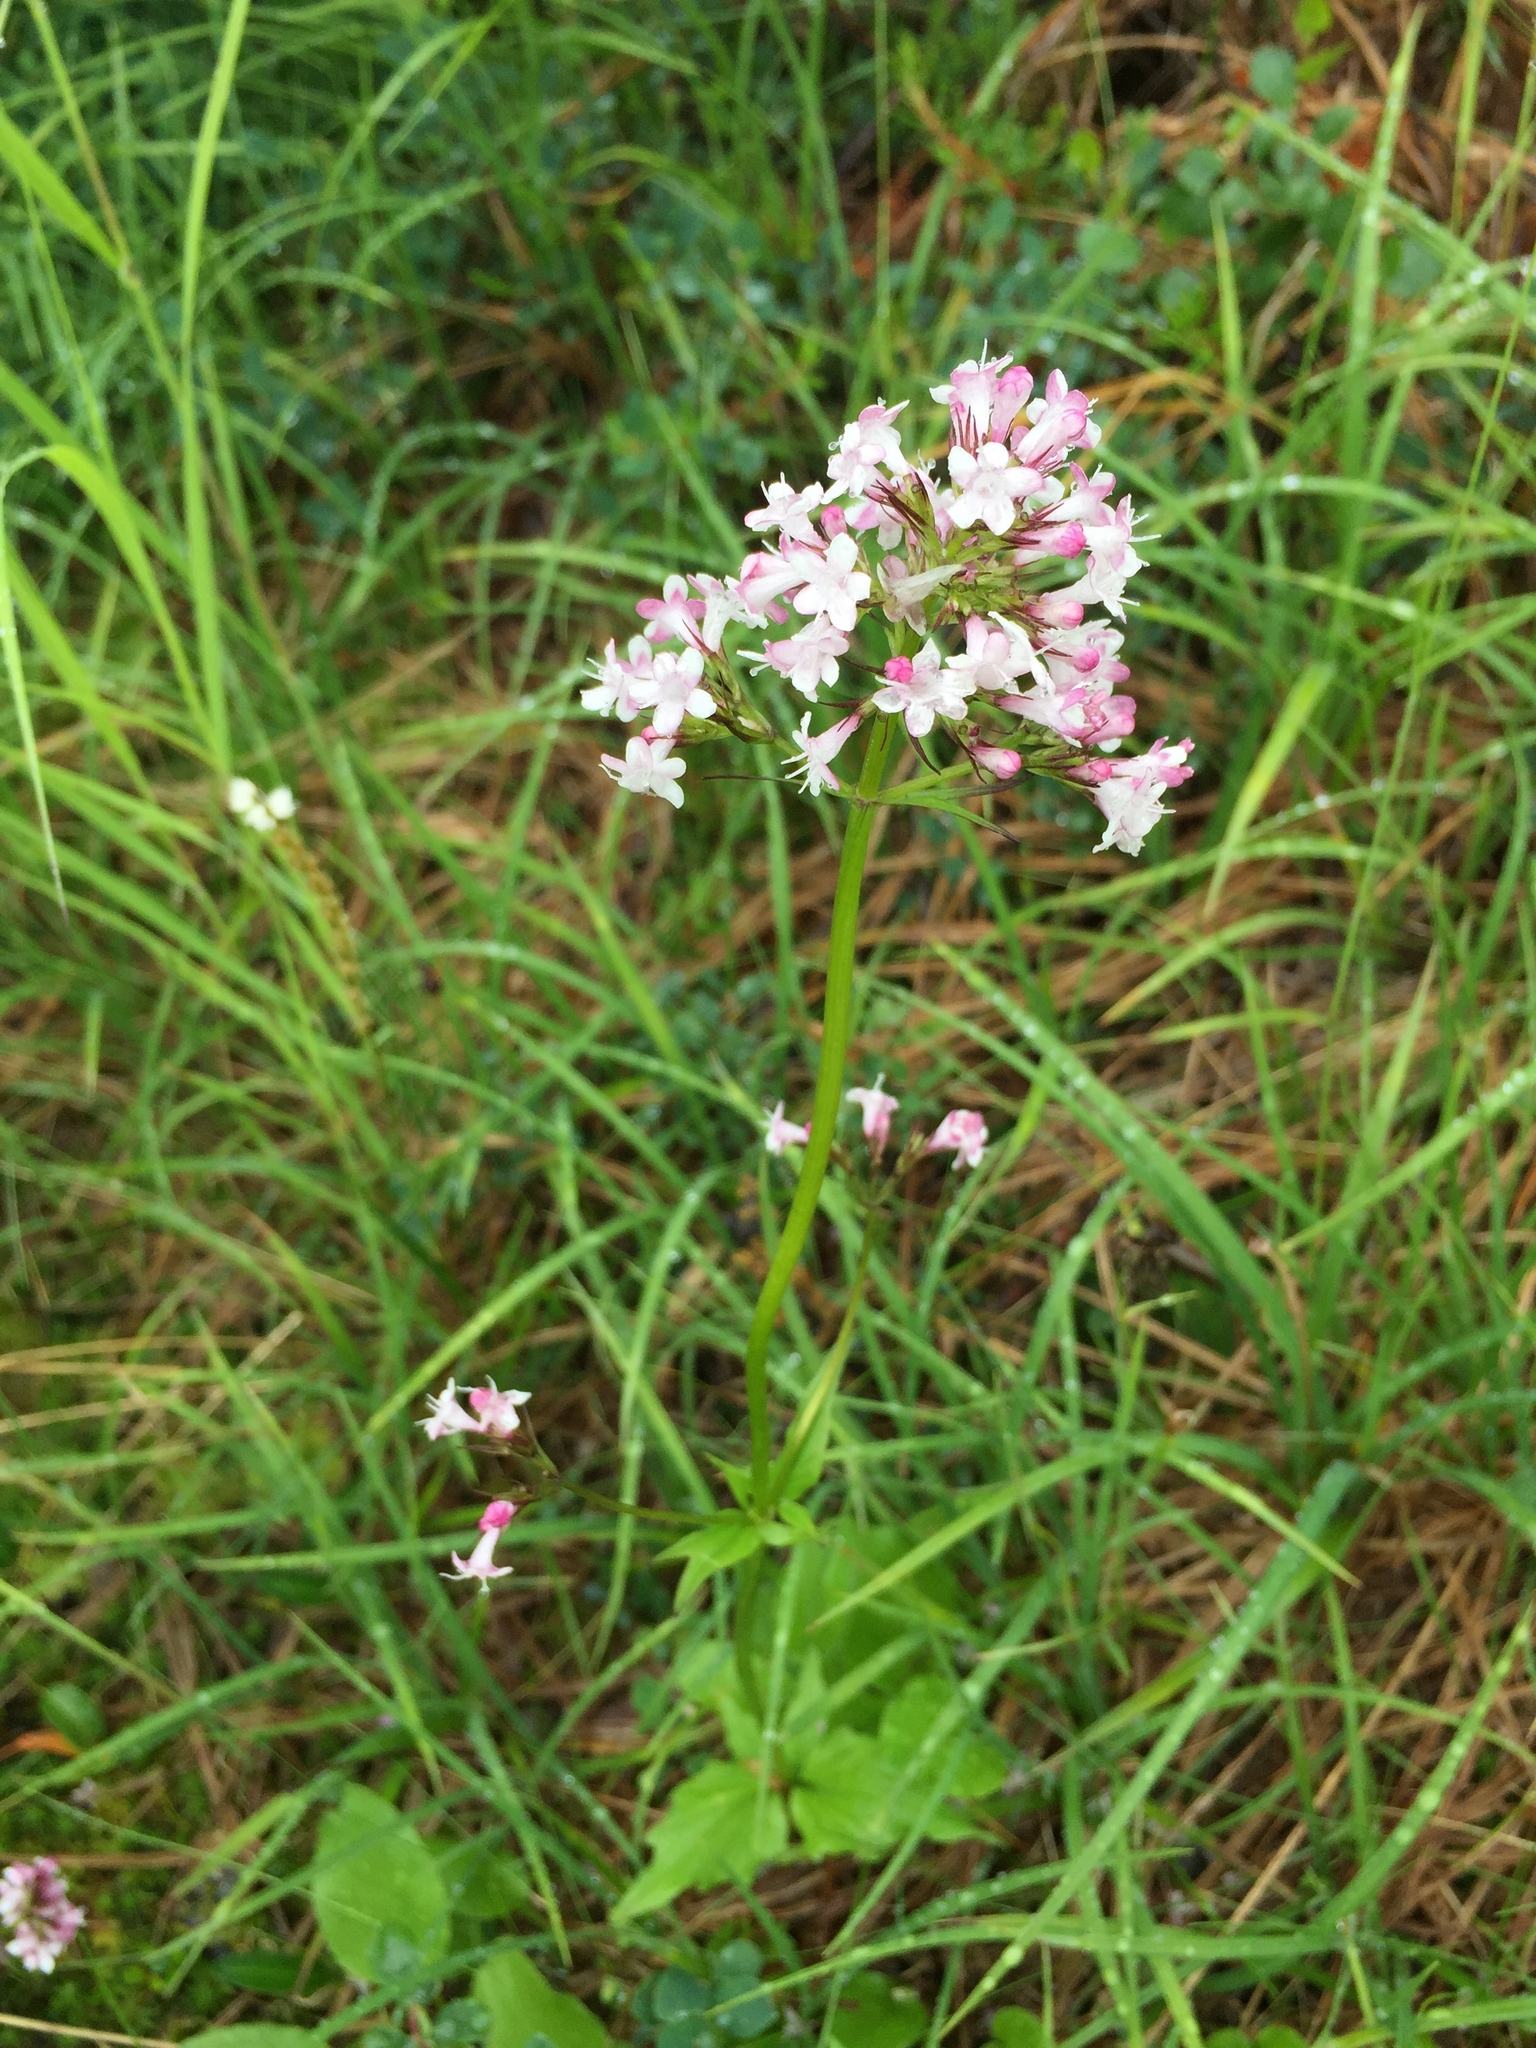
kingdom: Plantae
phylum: Tracheophyta
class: Magnoliopsida
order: Dipsacales
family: Caprifoliaceae
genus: Valeriana
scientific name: Valeriana capitata
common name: Capitate valerian
